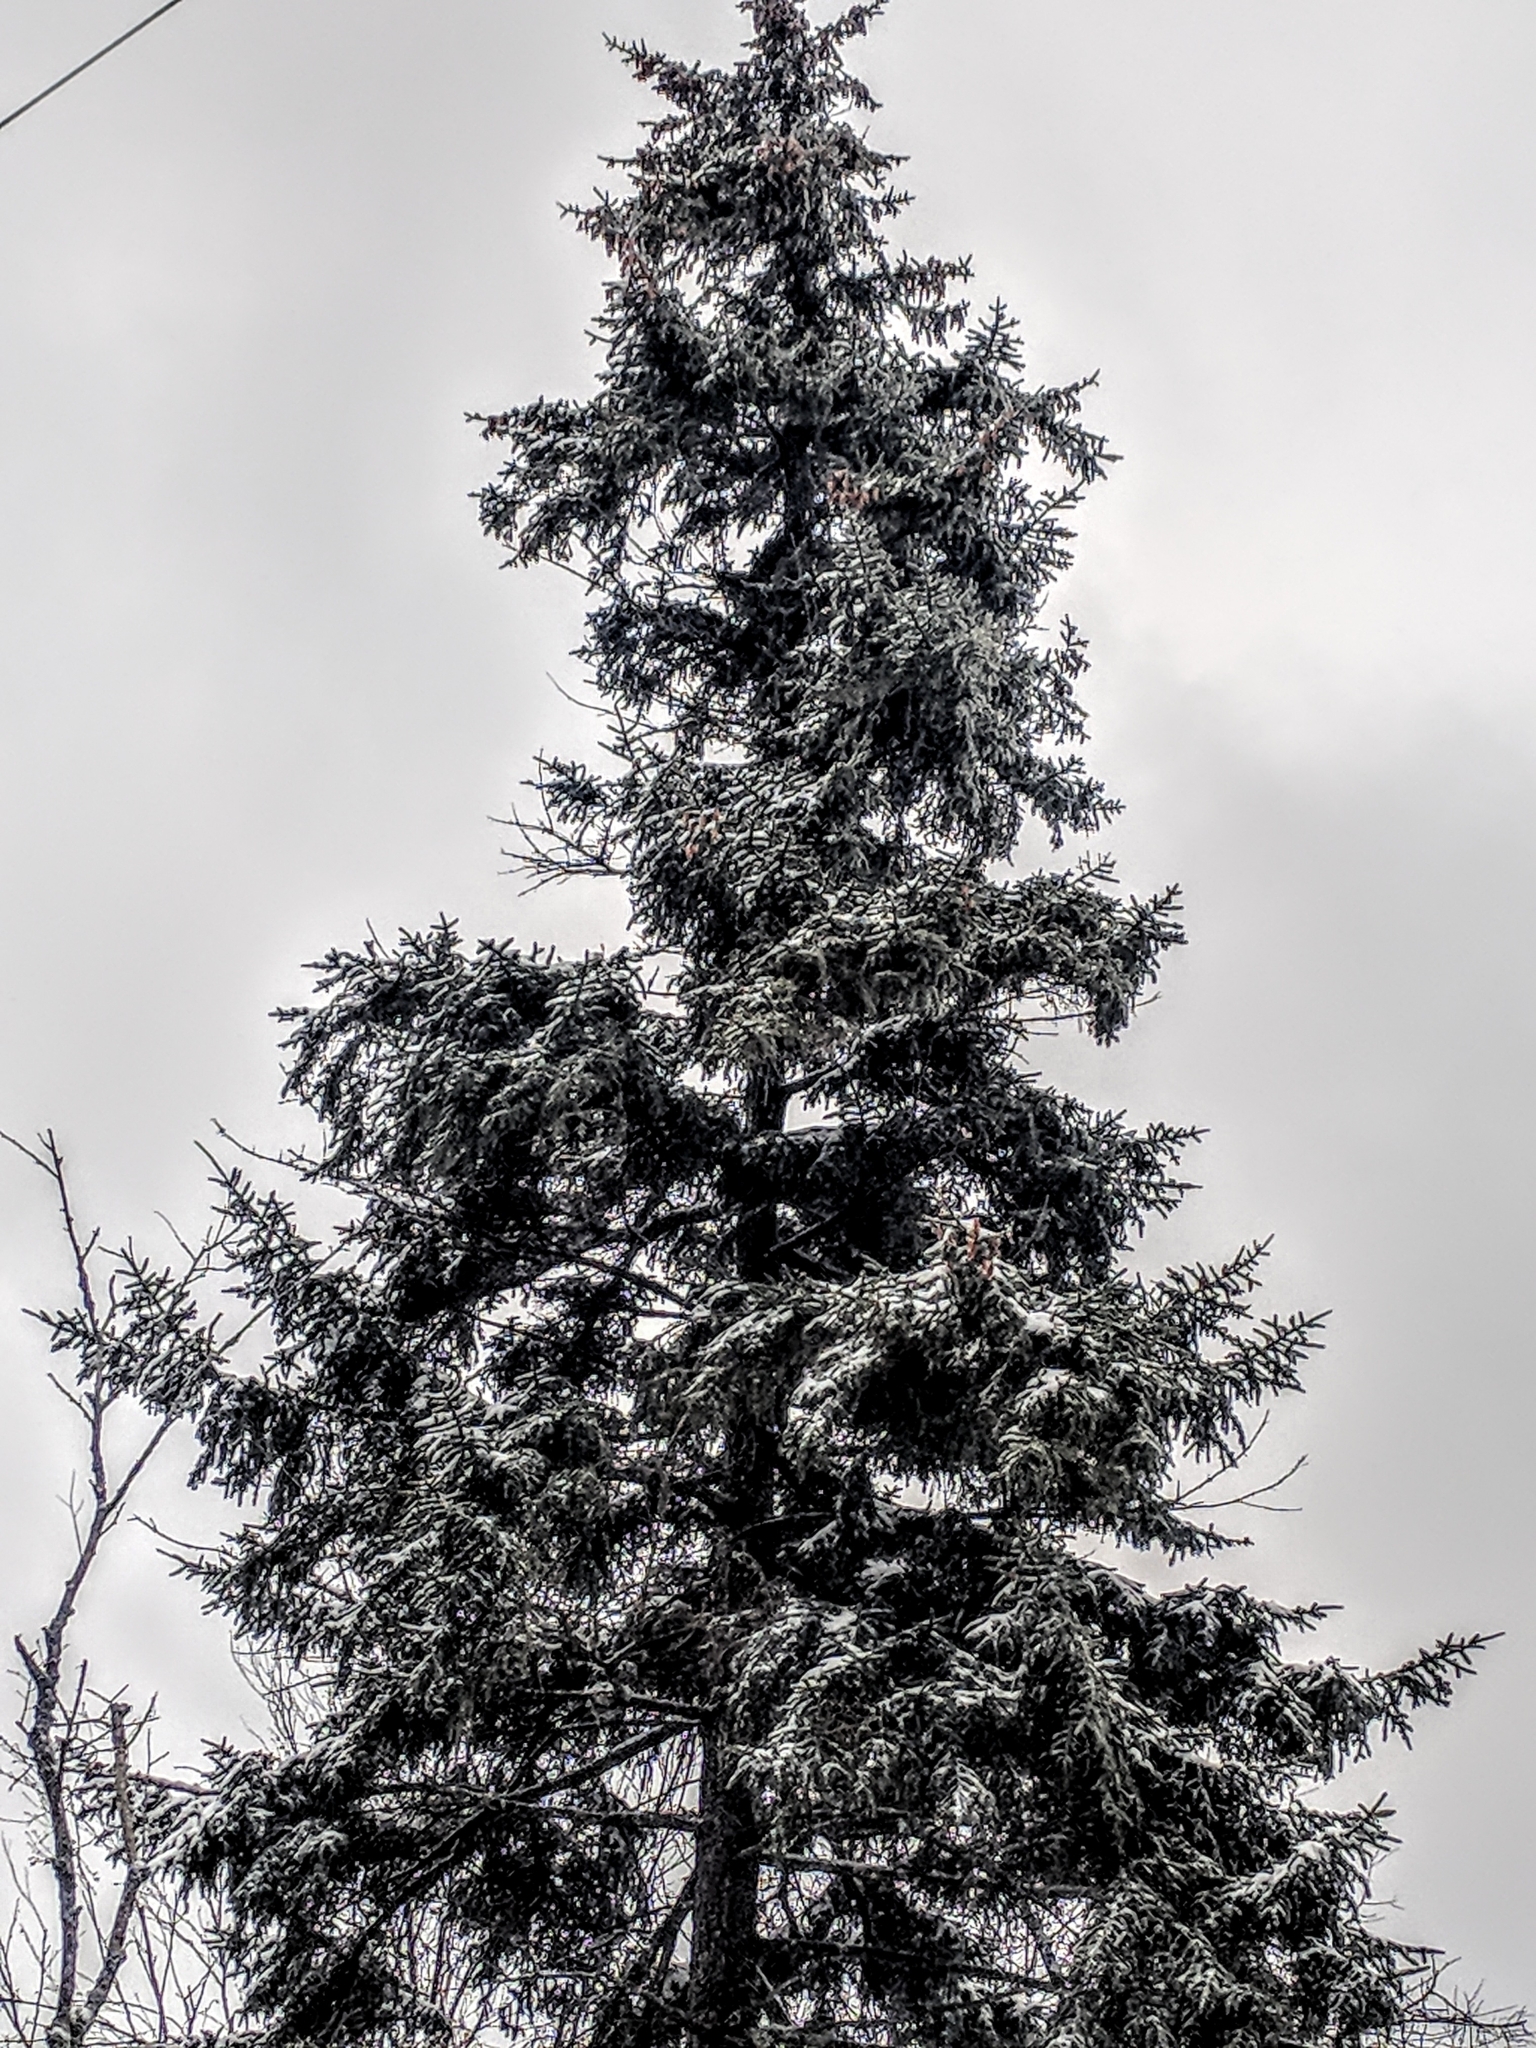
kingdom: Plantae
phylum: Tracheophyta
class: Pinopsida
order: Pinales
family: Pinaceae
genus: Picea
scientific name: Picea rubens
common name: Red spruce
